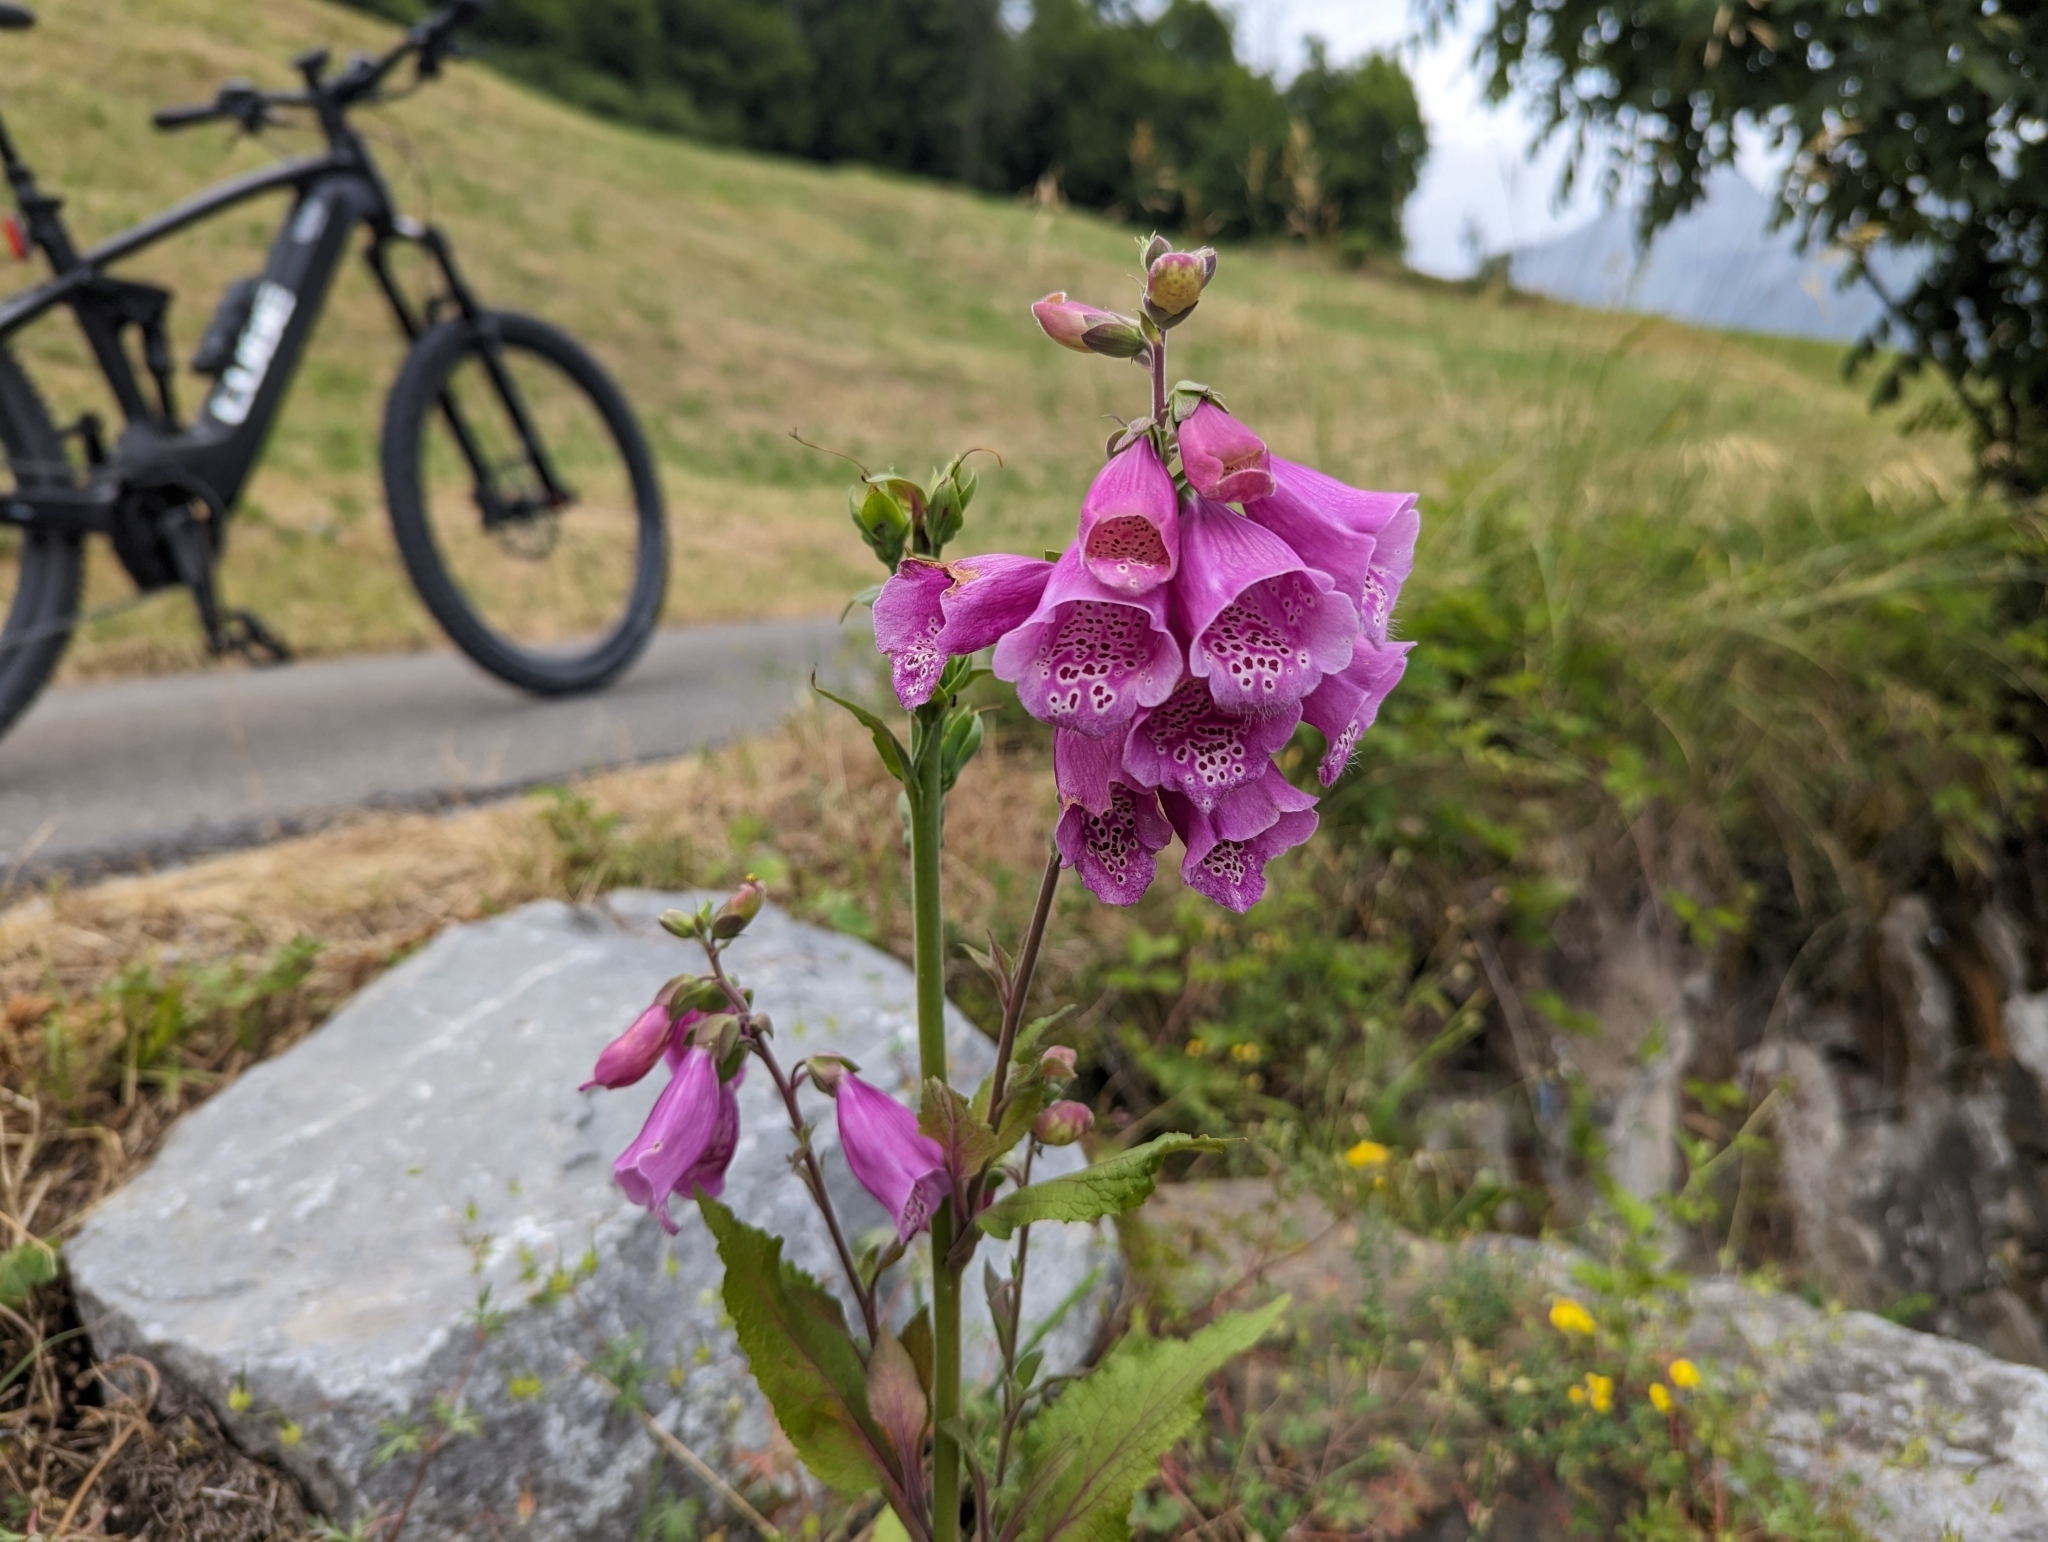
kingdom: Plantae
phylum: Tracheophyta
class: Magnoliopsida
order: Lamiales
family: Plantaginaceae
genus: Digitalis
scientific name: Digitalis purpurea
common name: Foxglove
